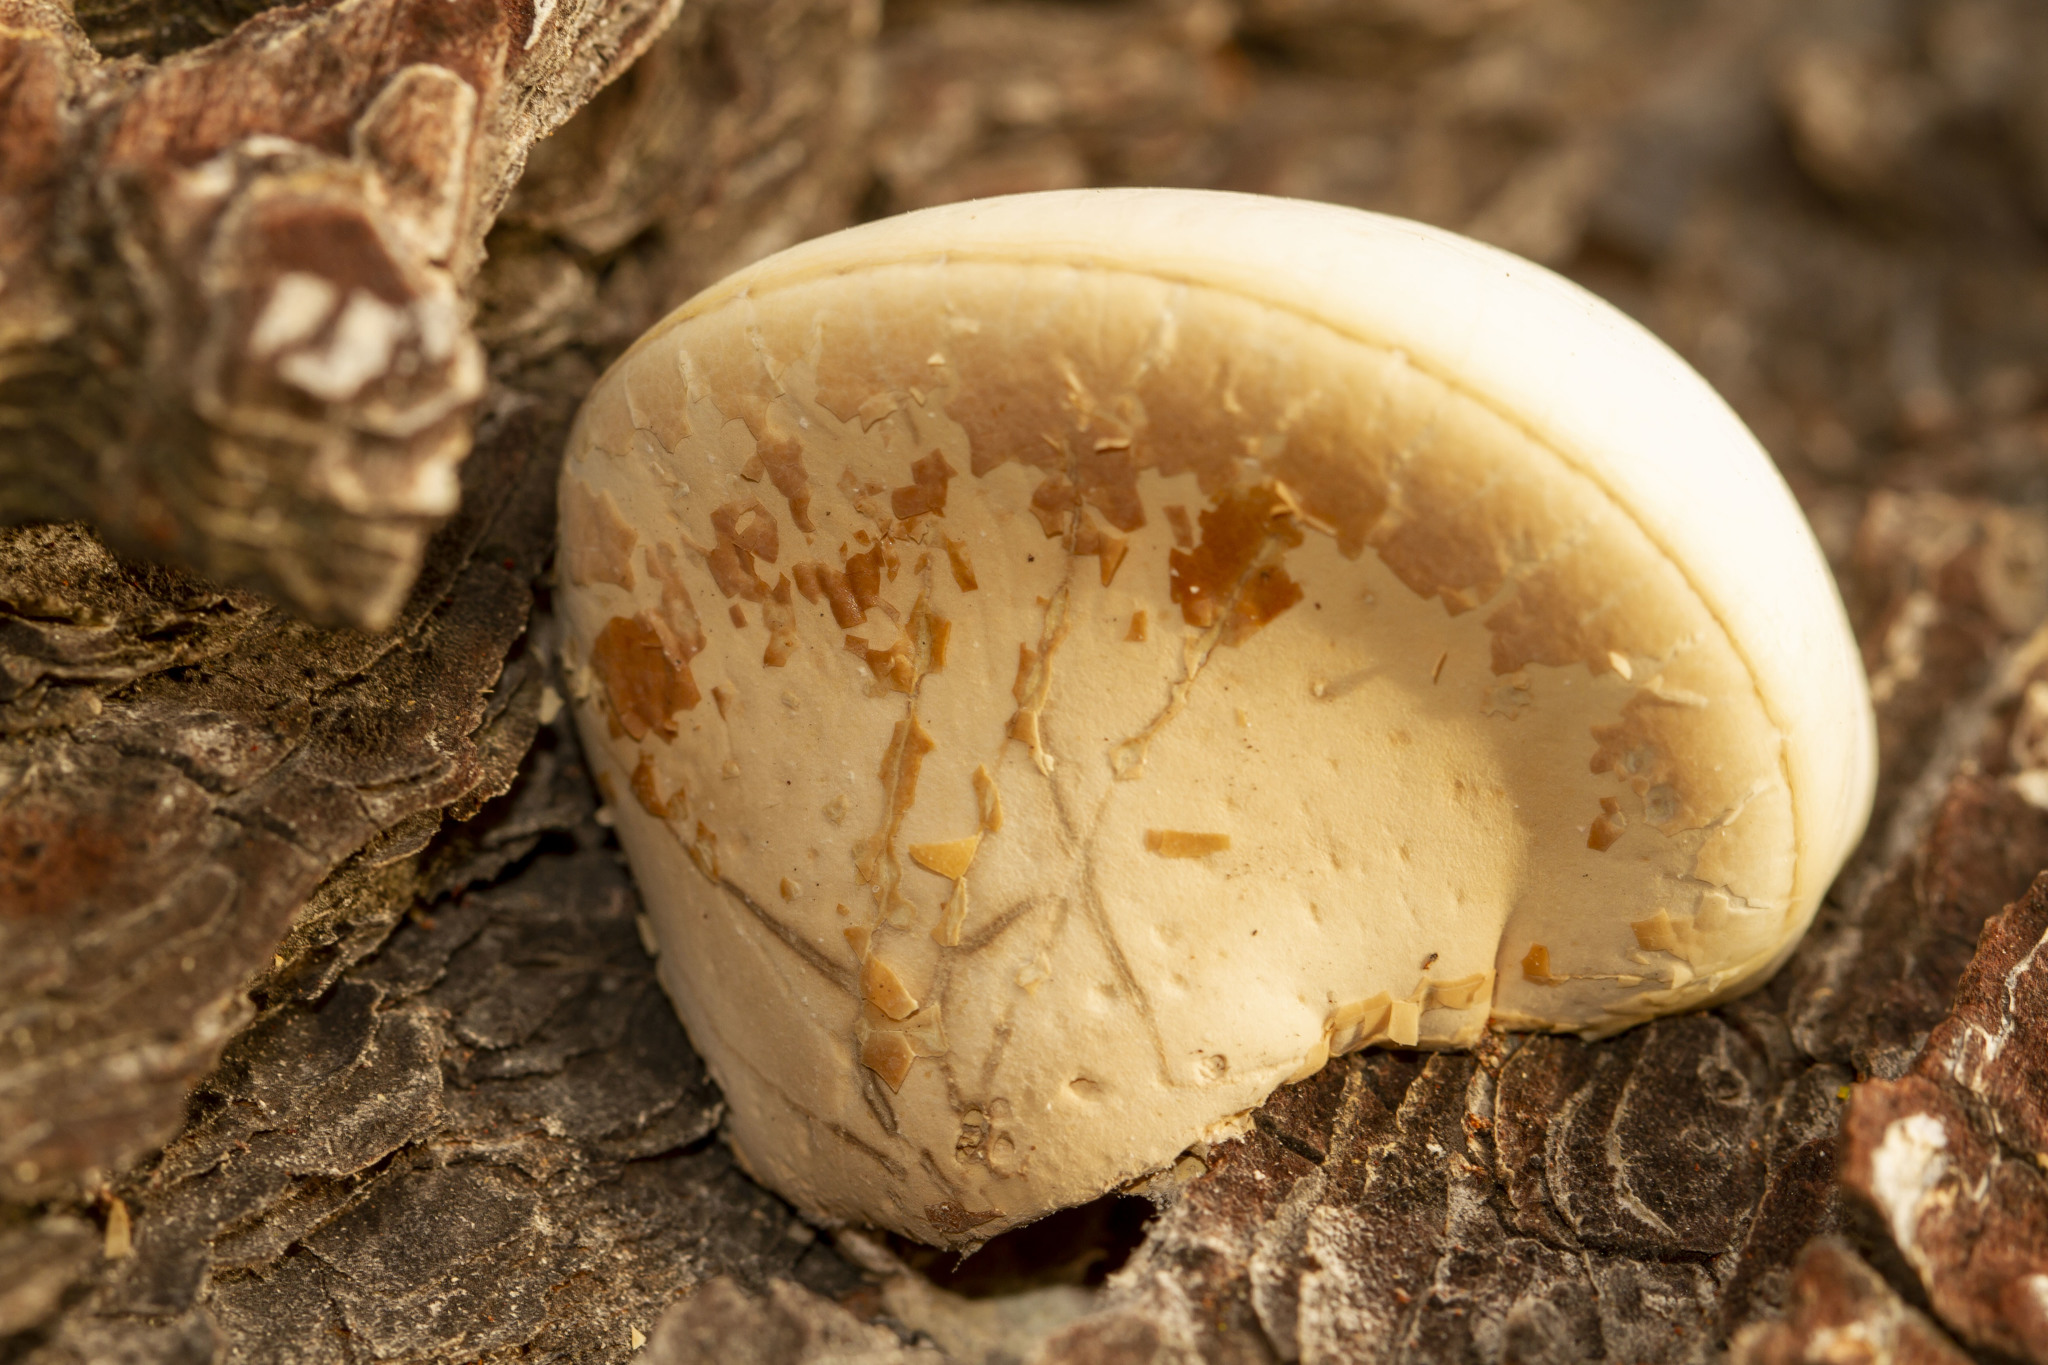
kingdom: Fungi
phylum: Basidiomycota
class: Agaricomycetes
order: Polyporales
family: Polyporaceae
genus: Cryptoporus
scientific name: Cryptoporus volvatus
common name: Veiled polypore
